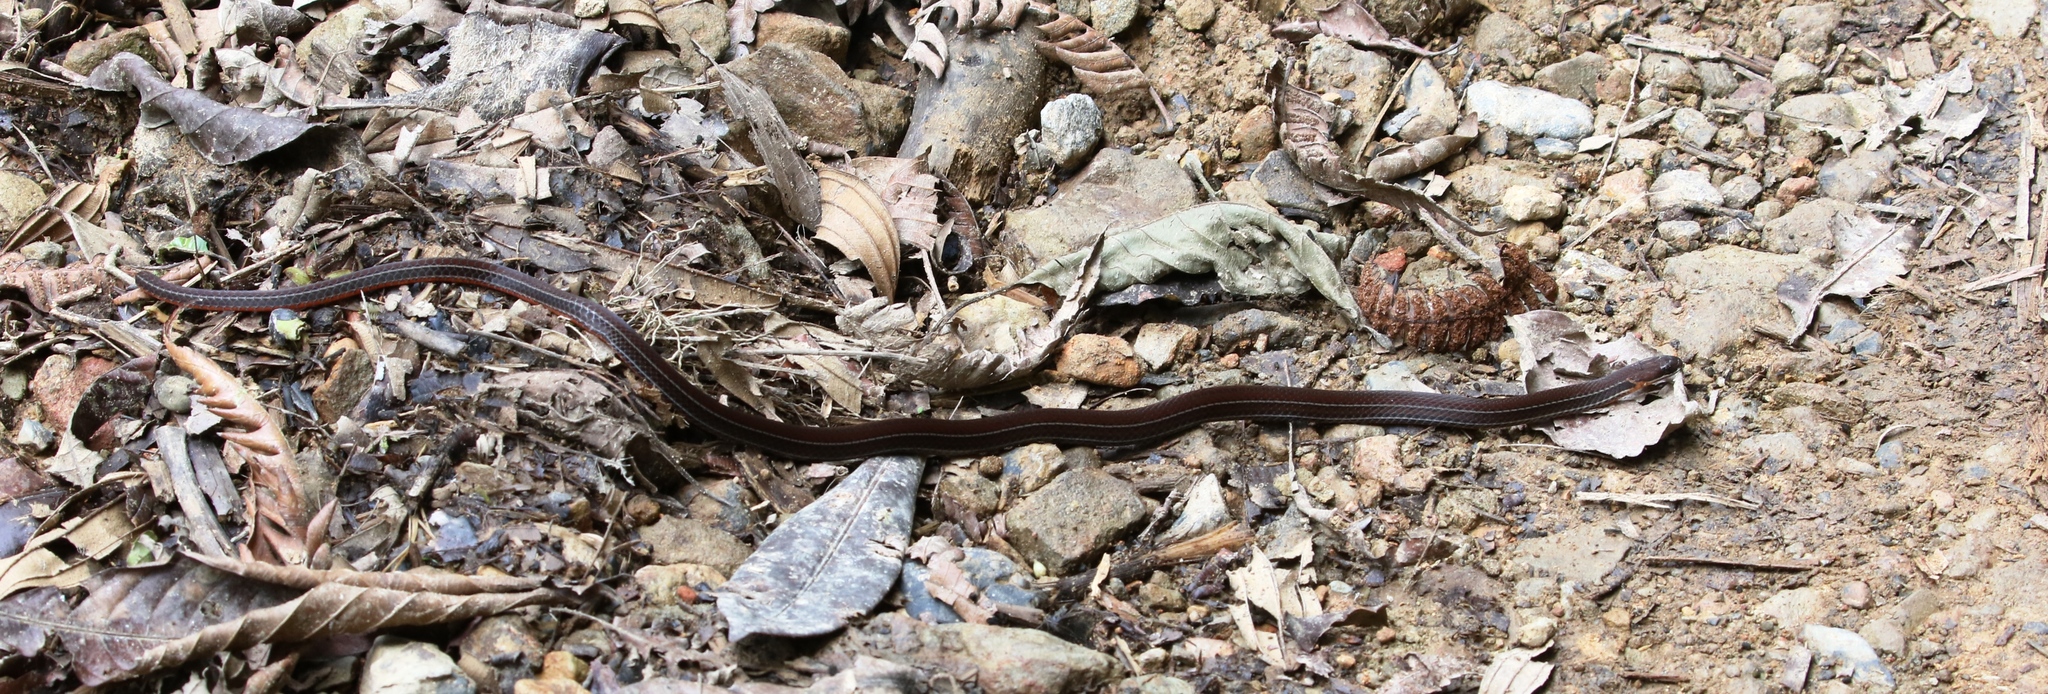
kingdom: Animalia
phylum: Chordata
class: Squamata
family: Colubridae
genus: Urotheca
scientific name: Urotheca lateristriga
